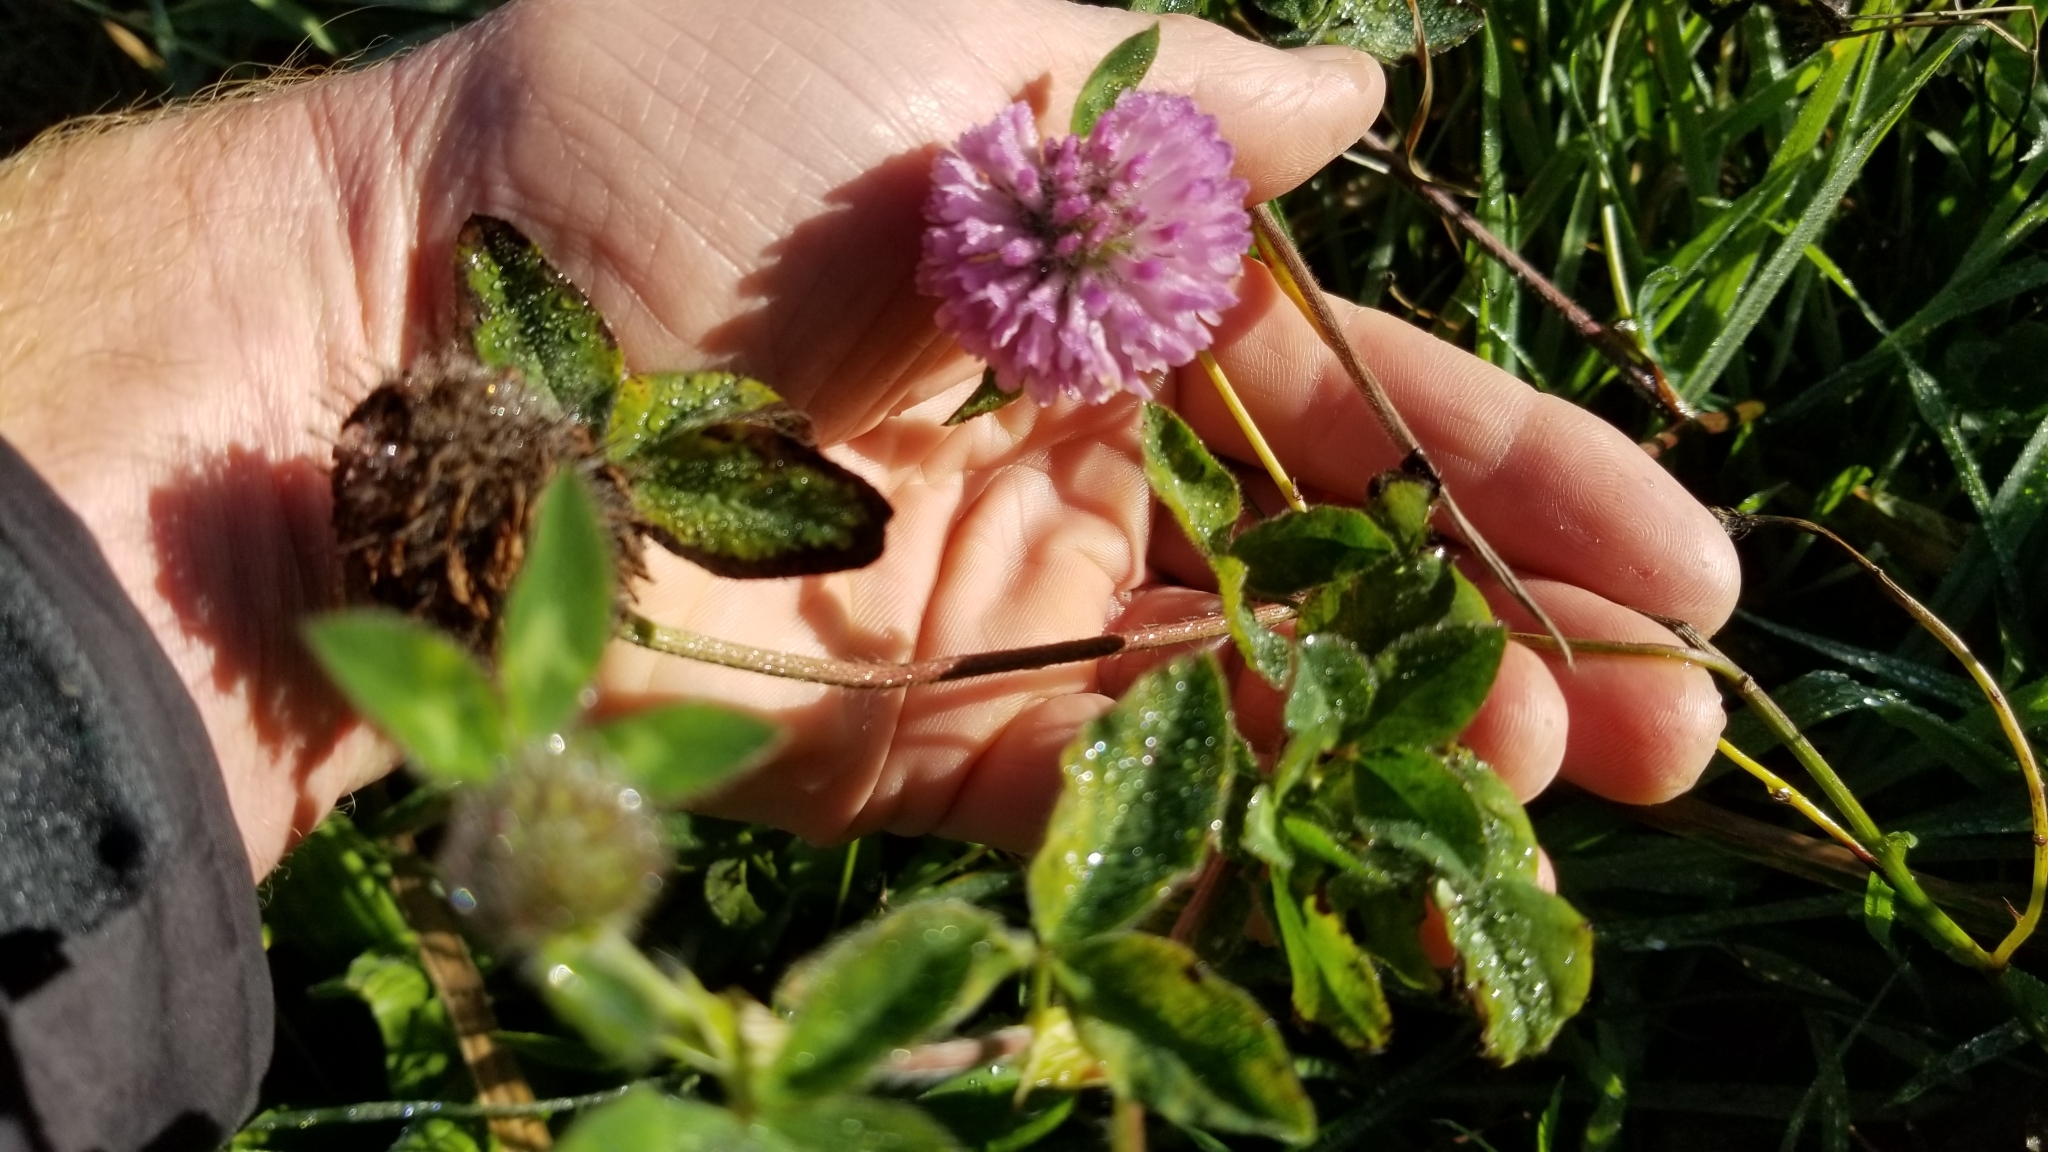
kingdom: Plantae
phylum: Tracheophyta
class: Magnoliopsida
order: Fabales
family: Fabaceae
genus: Trifolium
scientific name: Trifolium pratense
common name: Red clover
